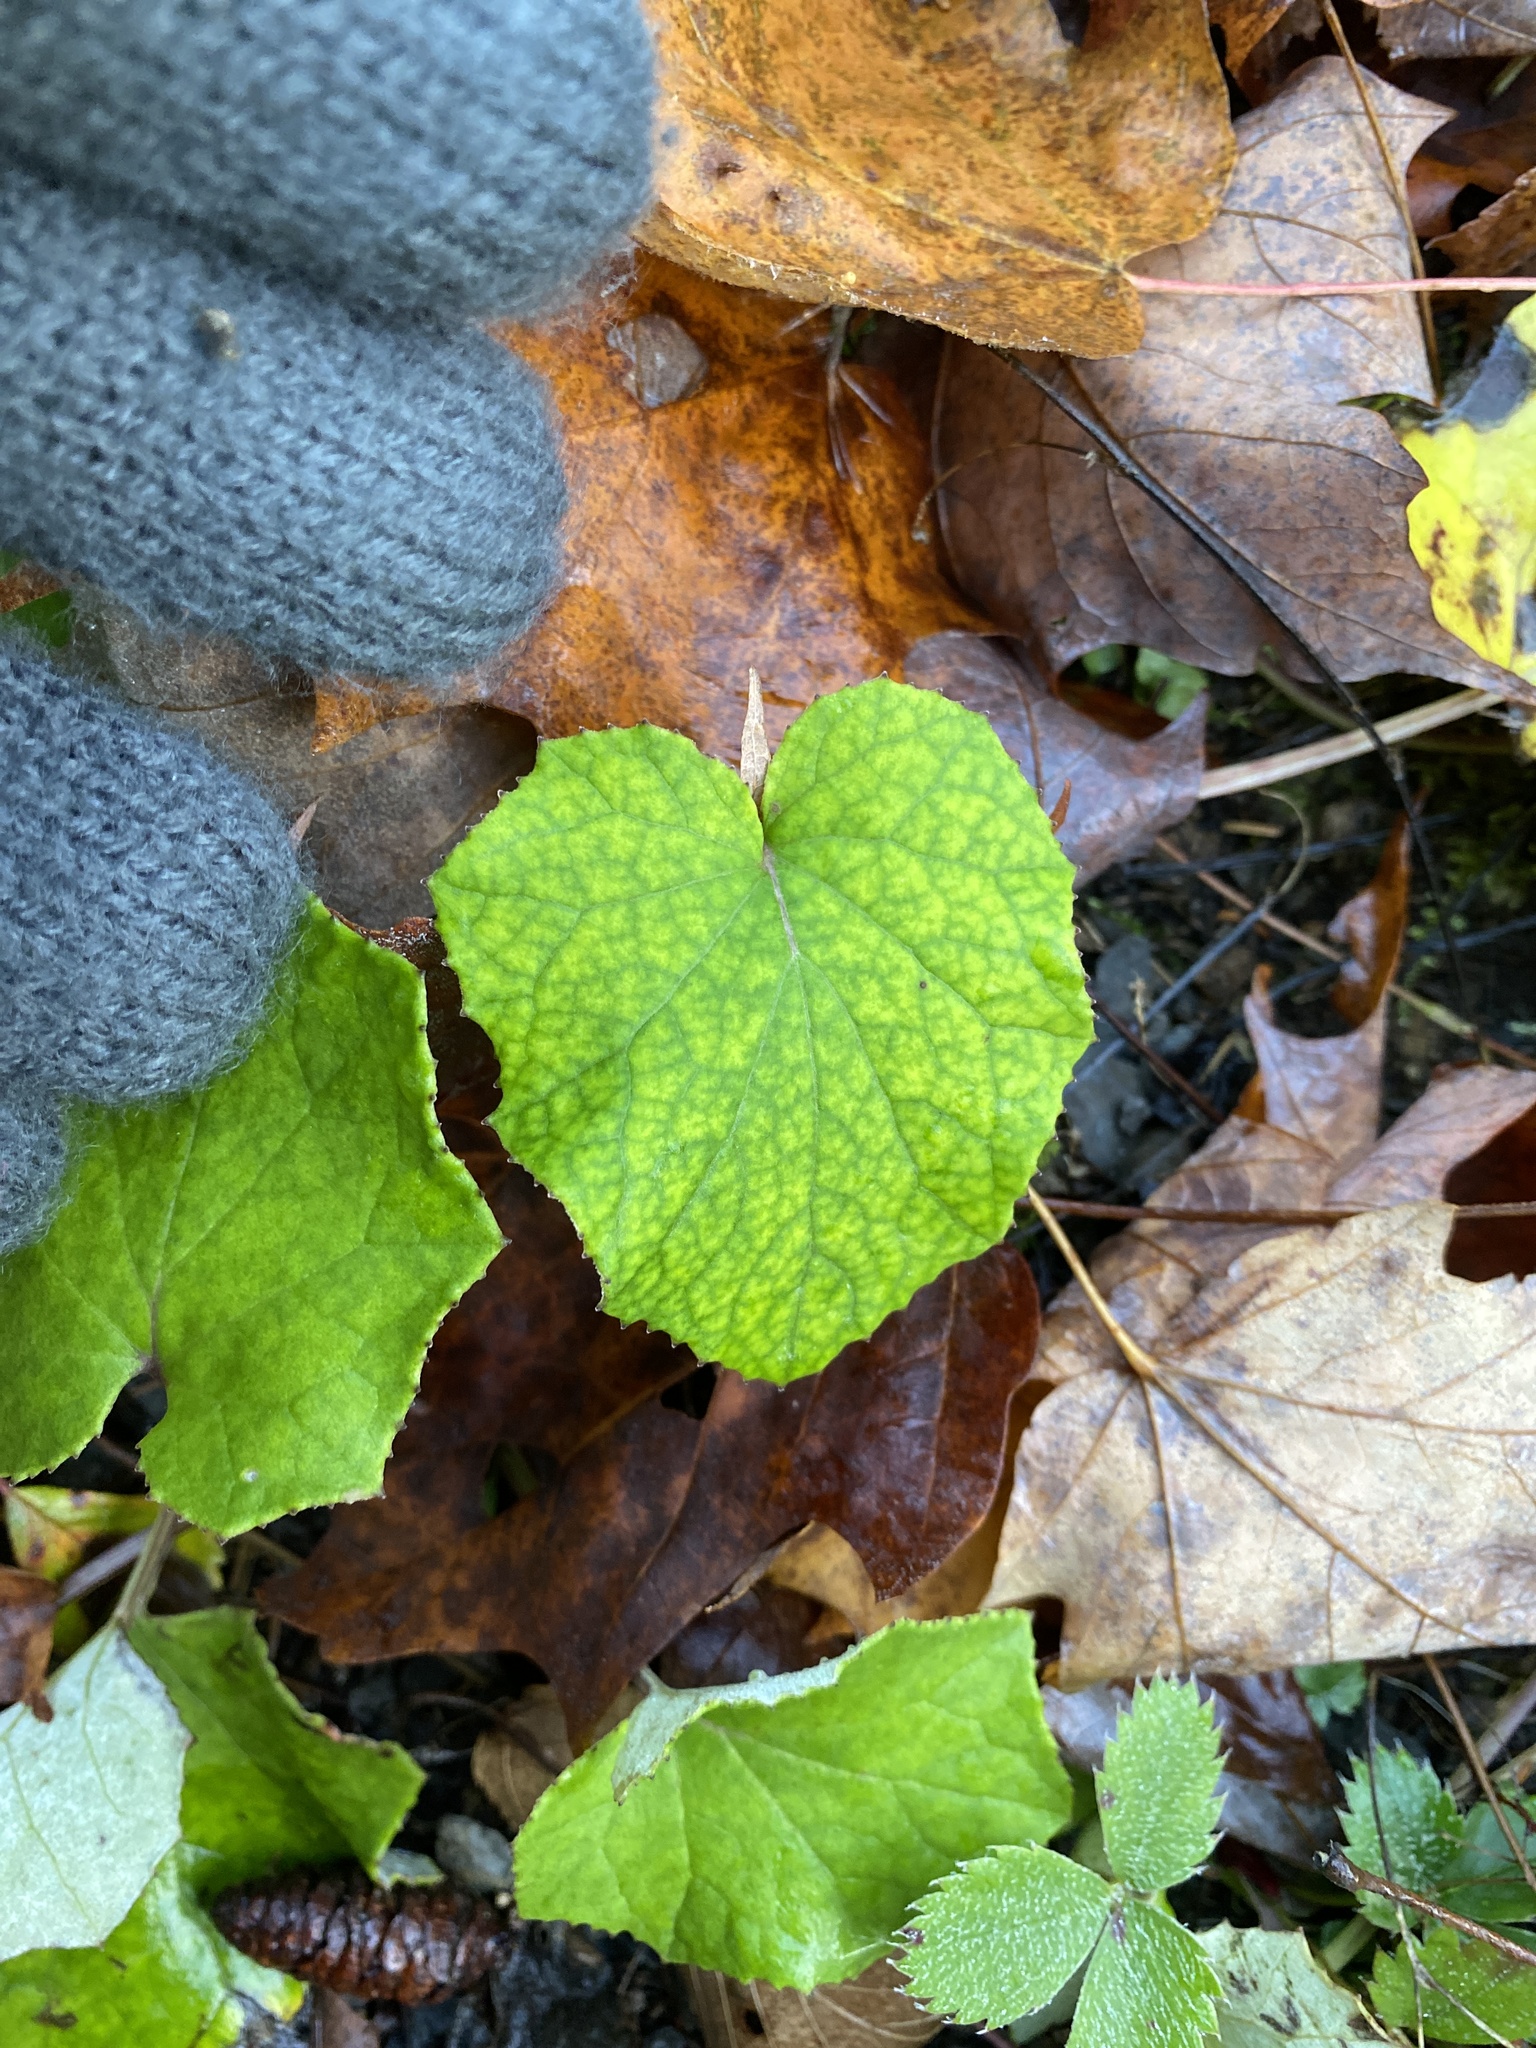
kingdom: Plantae
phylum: Tracheophyta
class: Magnoliopsida
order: Asterales
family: Asteraceae
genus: Tussilago
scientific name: Tussilago farfara
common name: Coltsfoot
